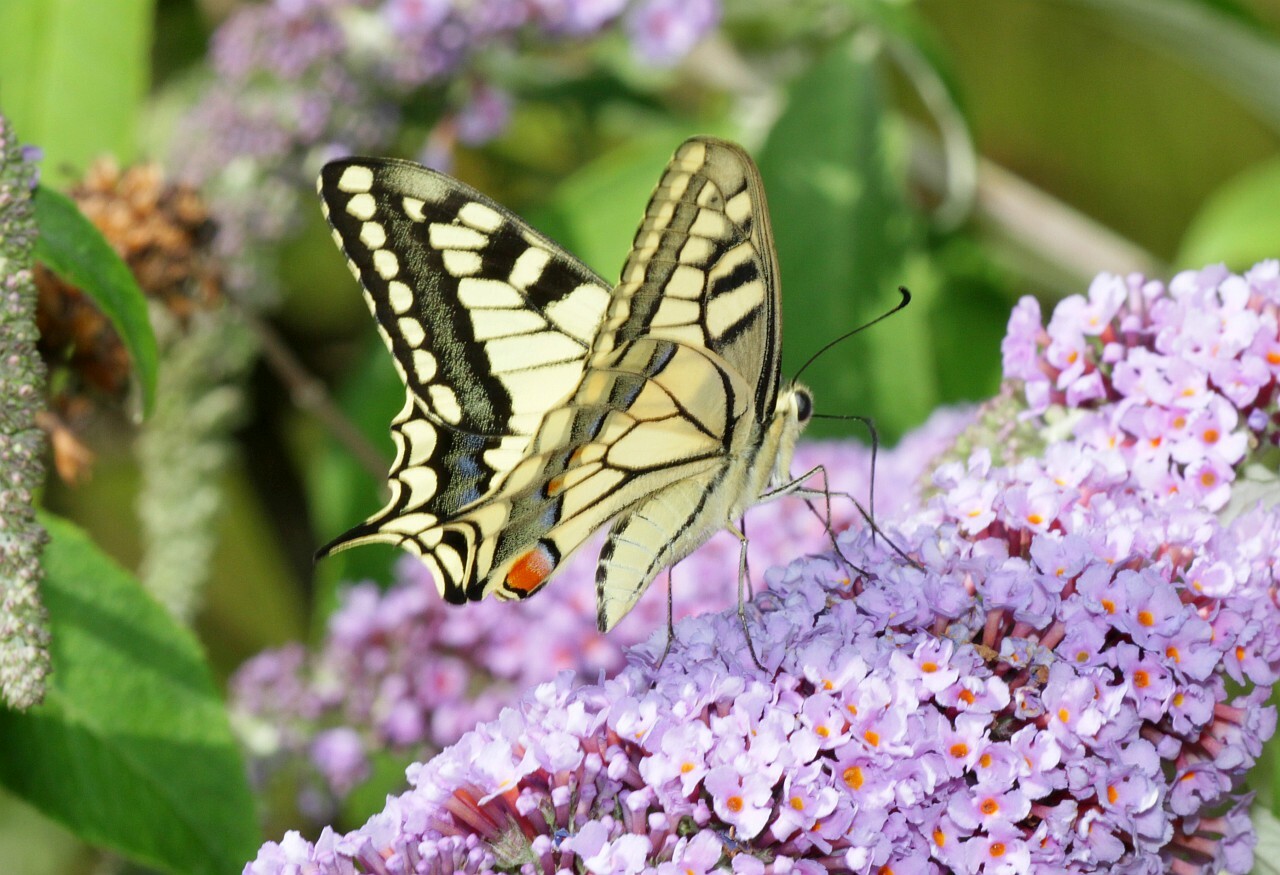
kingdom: Animalia
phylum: Arthropoda
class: Insecta
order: Lepidoptera
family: Papilionidae
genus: Papilio
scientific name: Papilio machaon
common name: Swallowtail
